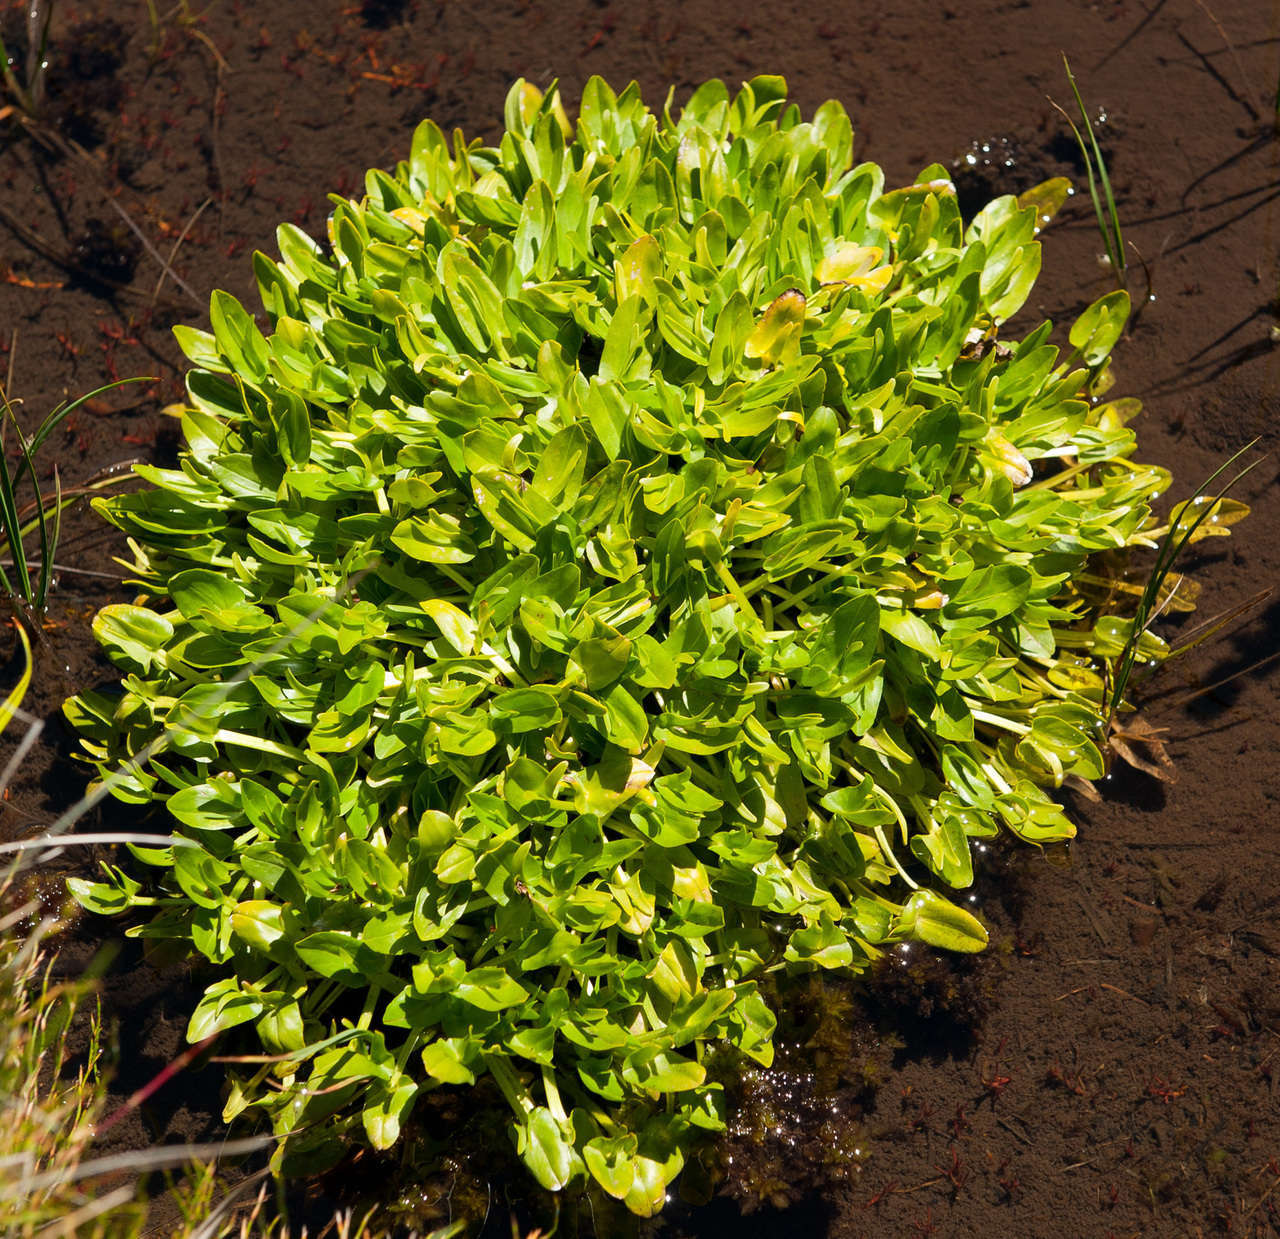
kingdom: Plantae
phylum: Tracheophyta
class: Magnoliopsida
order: Ranunculales
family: Ranunculaceae
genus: Caltha
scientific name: Caltha introloba
